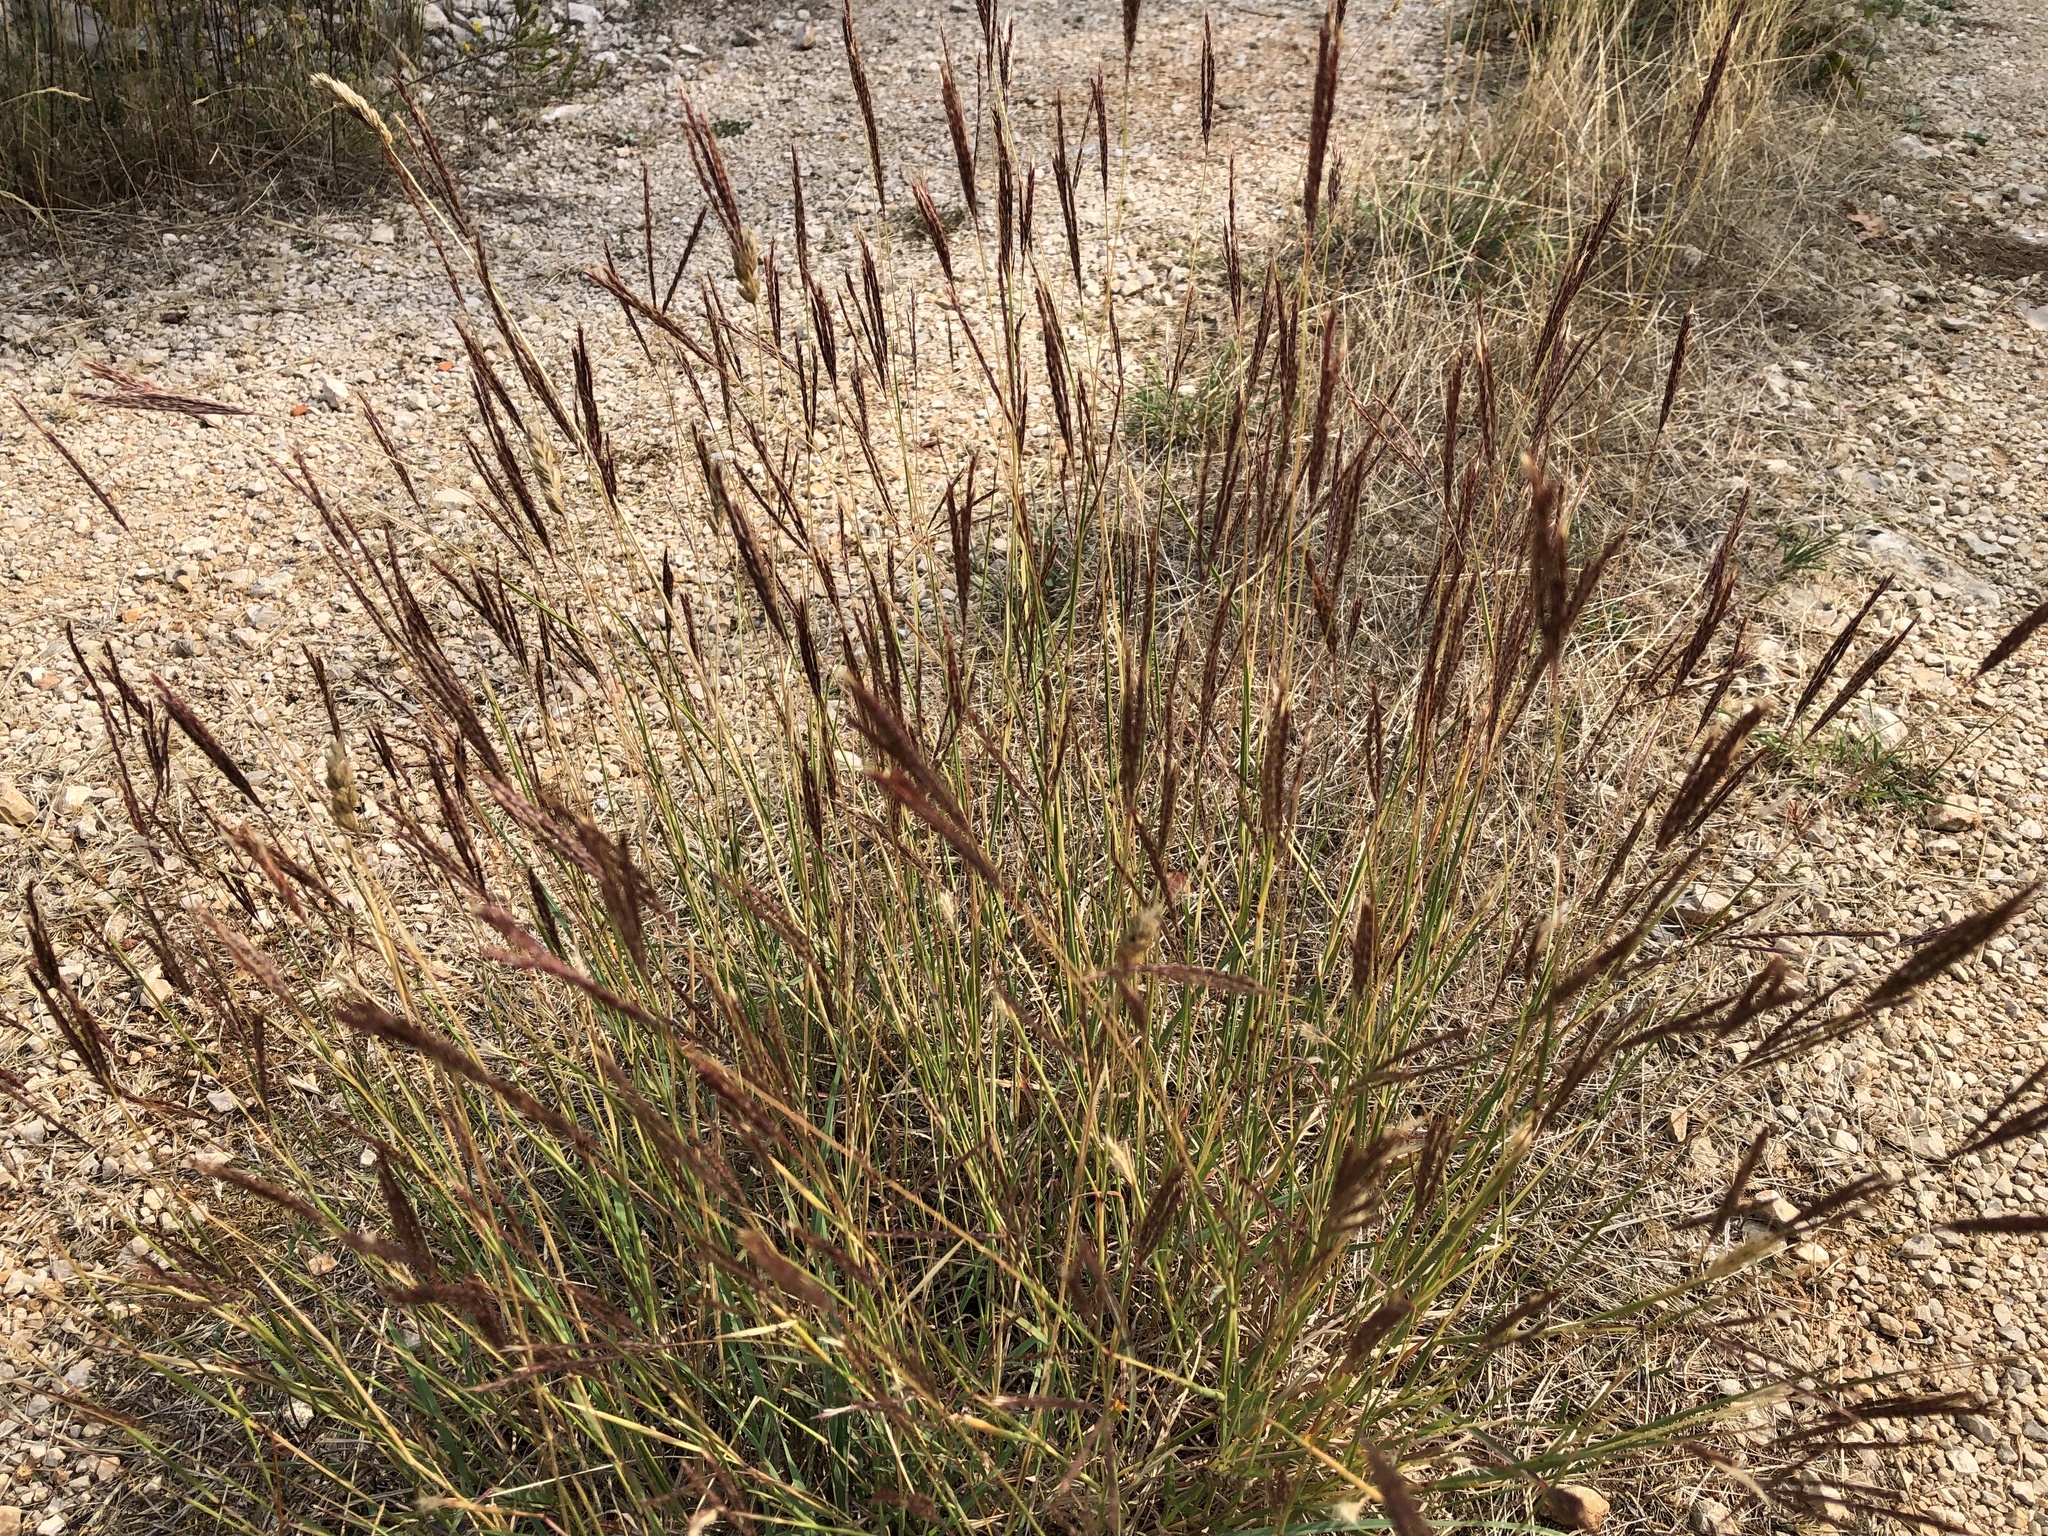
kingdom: Plantae
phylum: Tracheophyta
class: Liliopsida
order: Poales
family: Poaceae
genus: Bothriochloa
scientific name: Bothriochloa ischaemum
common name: Yellow bluestem
